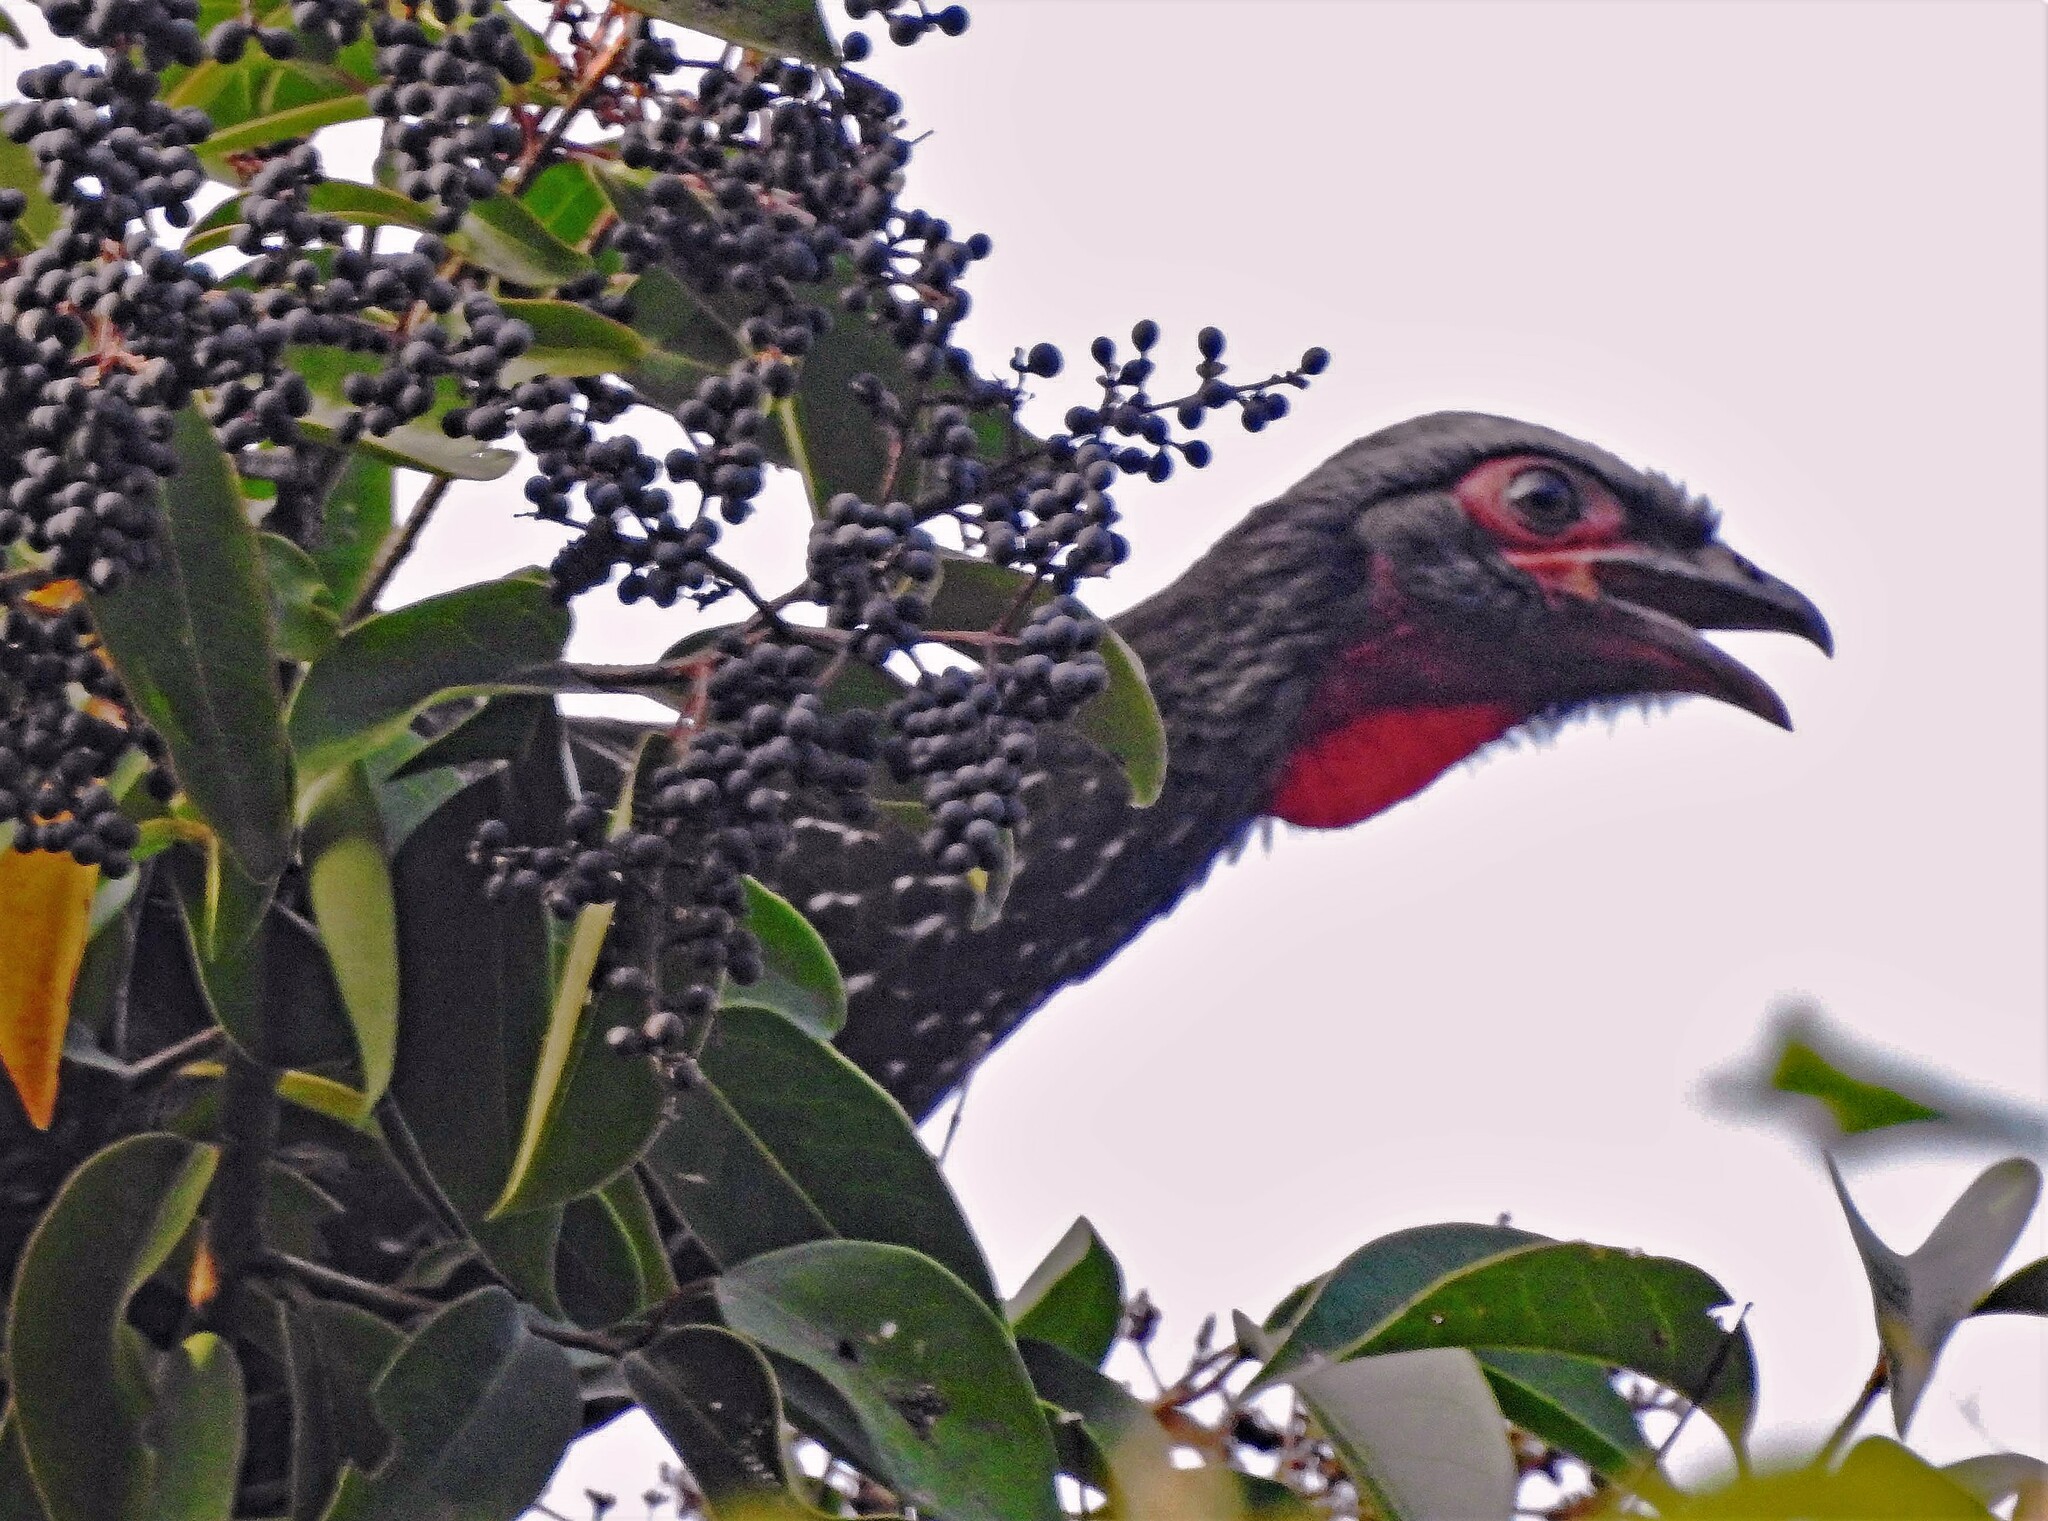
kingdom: Animalia
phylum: Chordata
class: Aves
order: Galliformes
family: Cracidae
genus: Penelope
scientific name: Penelope dabbenei
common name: Red-faced guan
